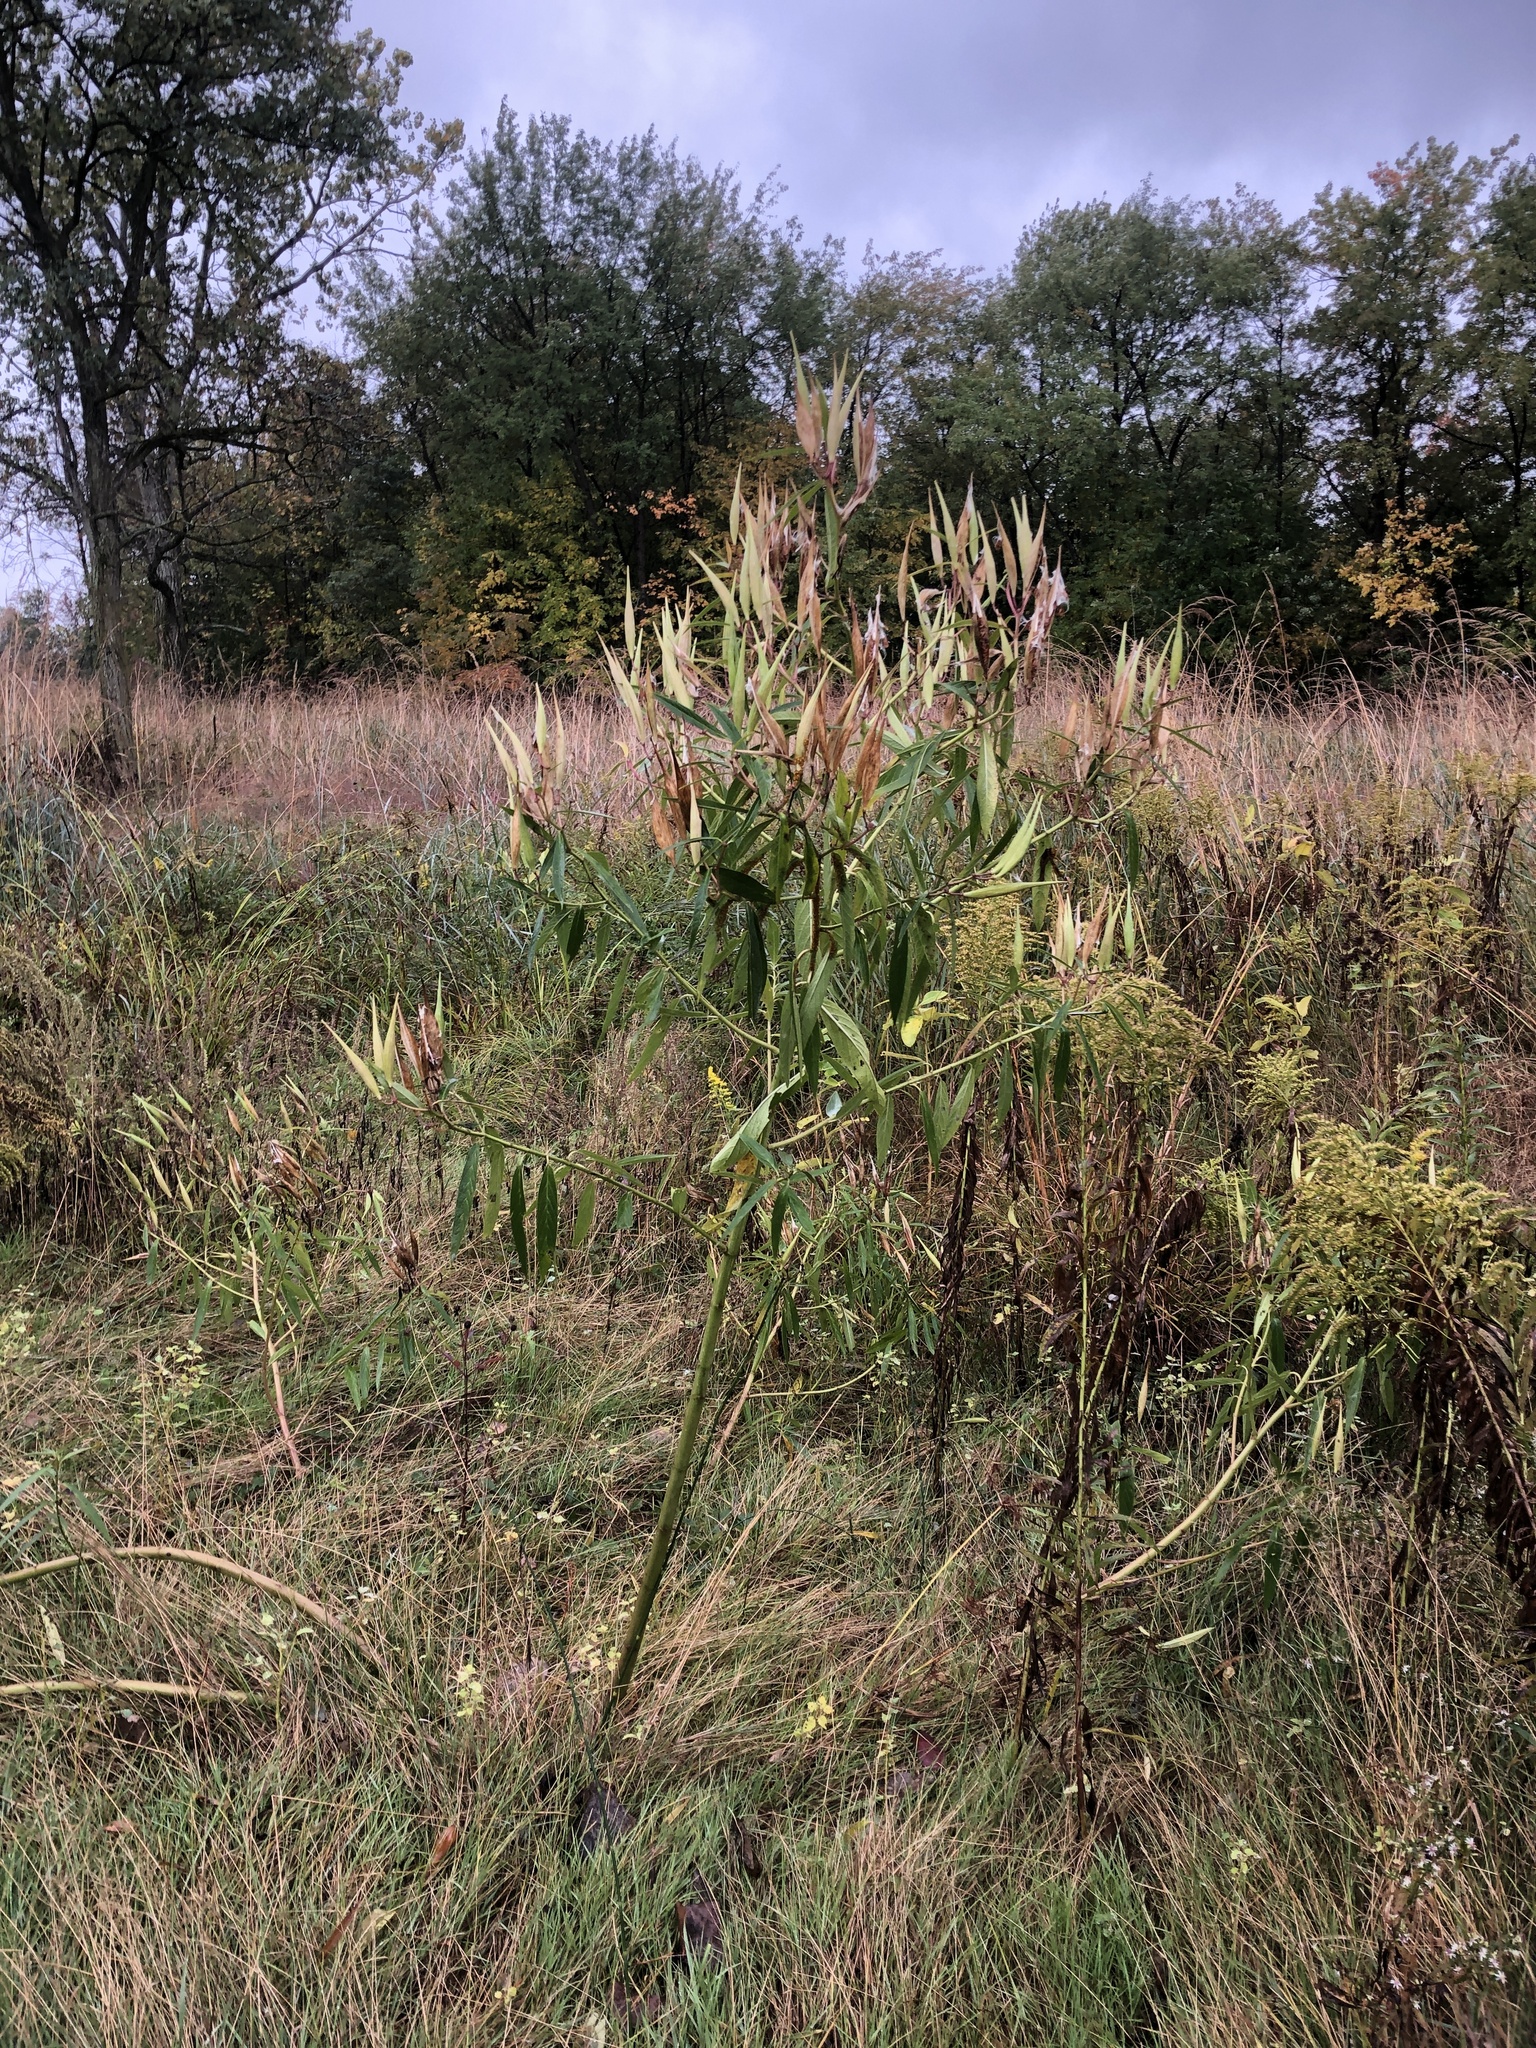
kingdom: Plantae
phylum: Tracheophyta
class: Magnoliopsida
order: Gentianales
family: Apocynaceae
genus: Asclepias
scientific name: Asclepias incarnata
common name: Swamp milkweed
